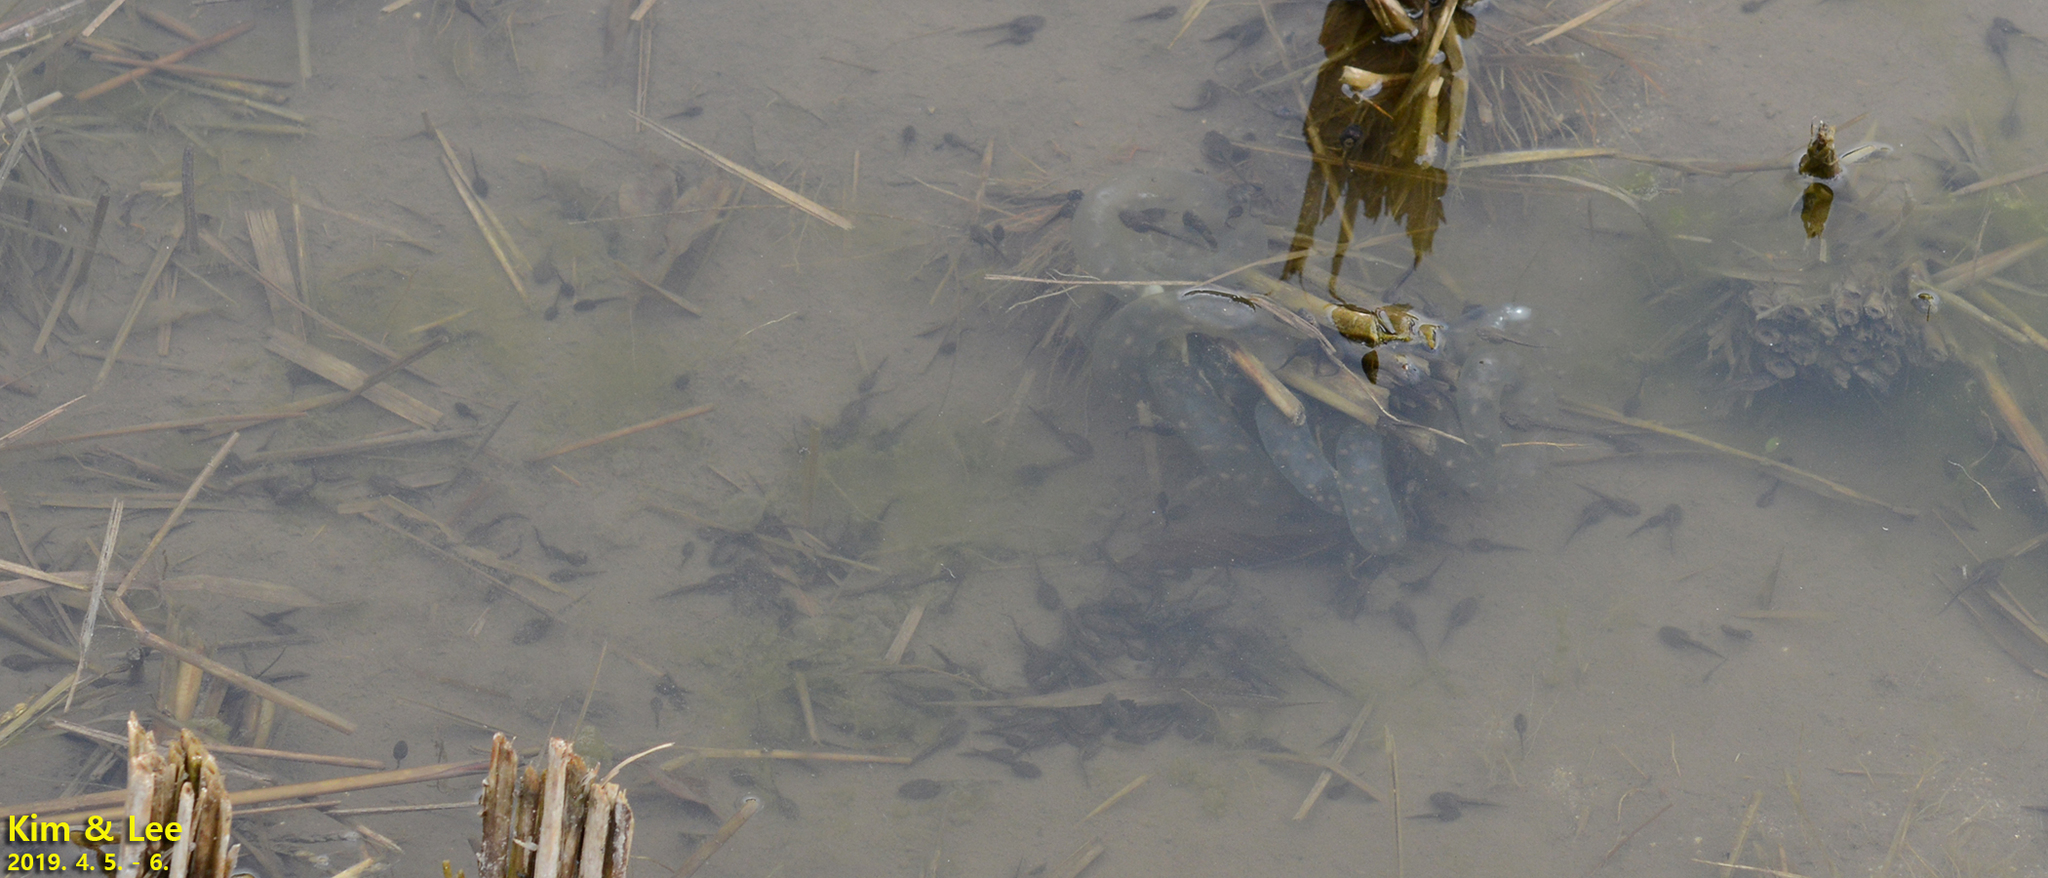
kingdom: Animalia
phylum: Chordata
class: Amphibia
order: Anura
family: Ranidae
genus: Rana
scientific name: Rana uenoi
